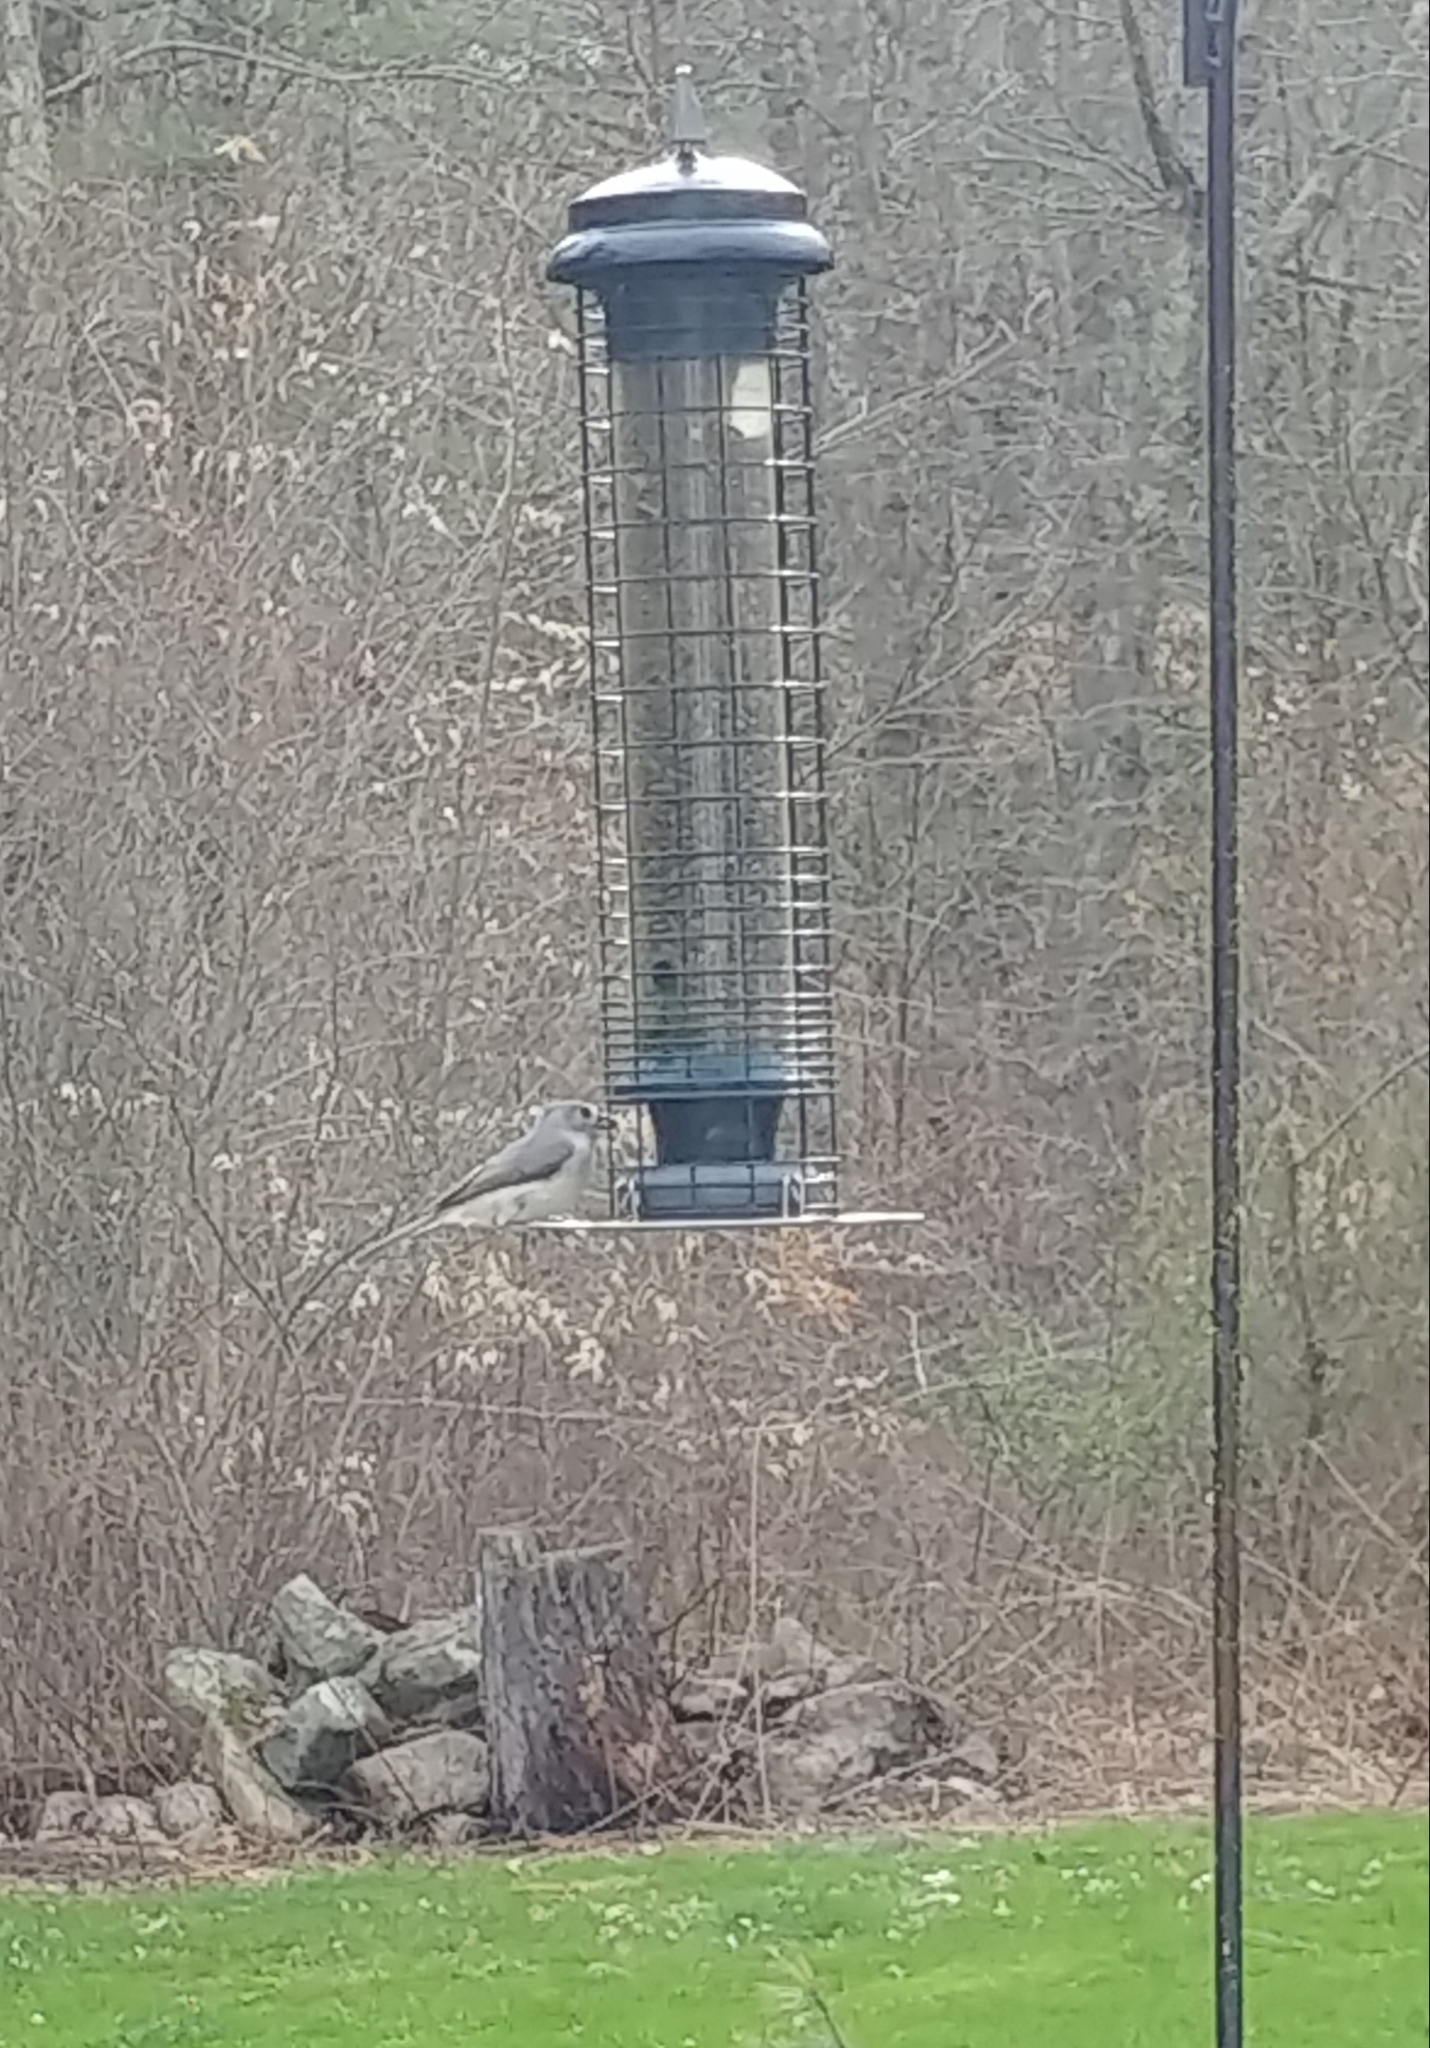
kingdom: Animalia
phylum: Chordata
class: Aves
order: Passeriformes
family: Paridae
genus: Baeolophus
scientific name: Baeolophus bicolor
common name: Tufted titmouse
